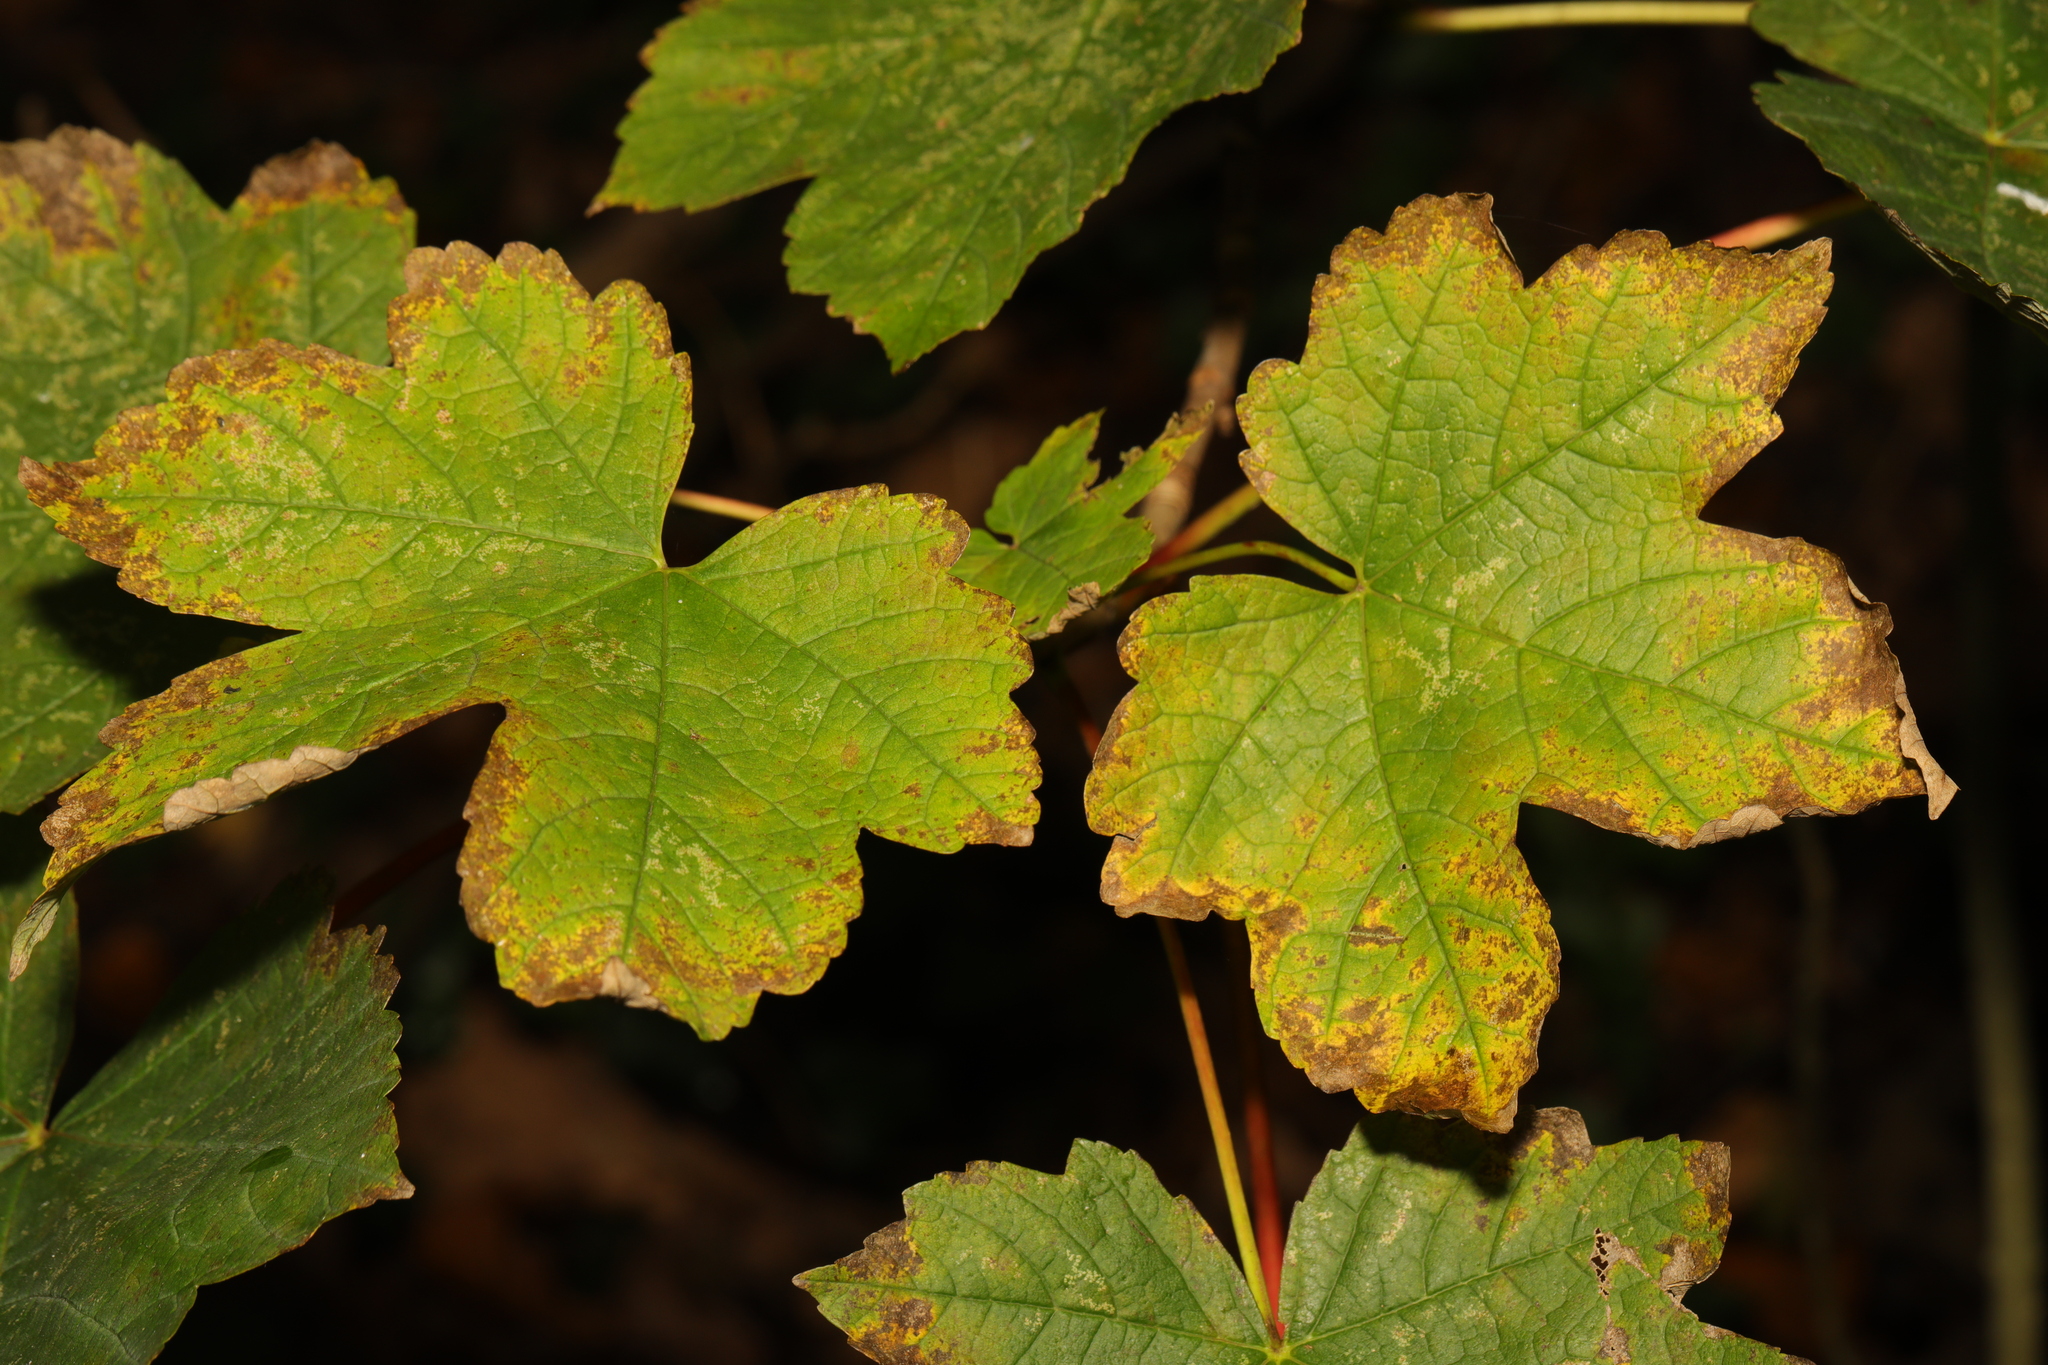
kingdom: Plantae
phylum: Tracheophyta
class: Magnoliopsida
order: Sapindales
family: Sapindaceae
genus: Acer
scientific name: Acer pseudoplatanus
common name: Sycamore
